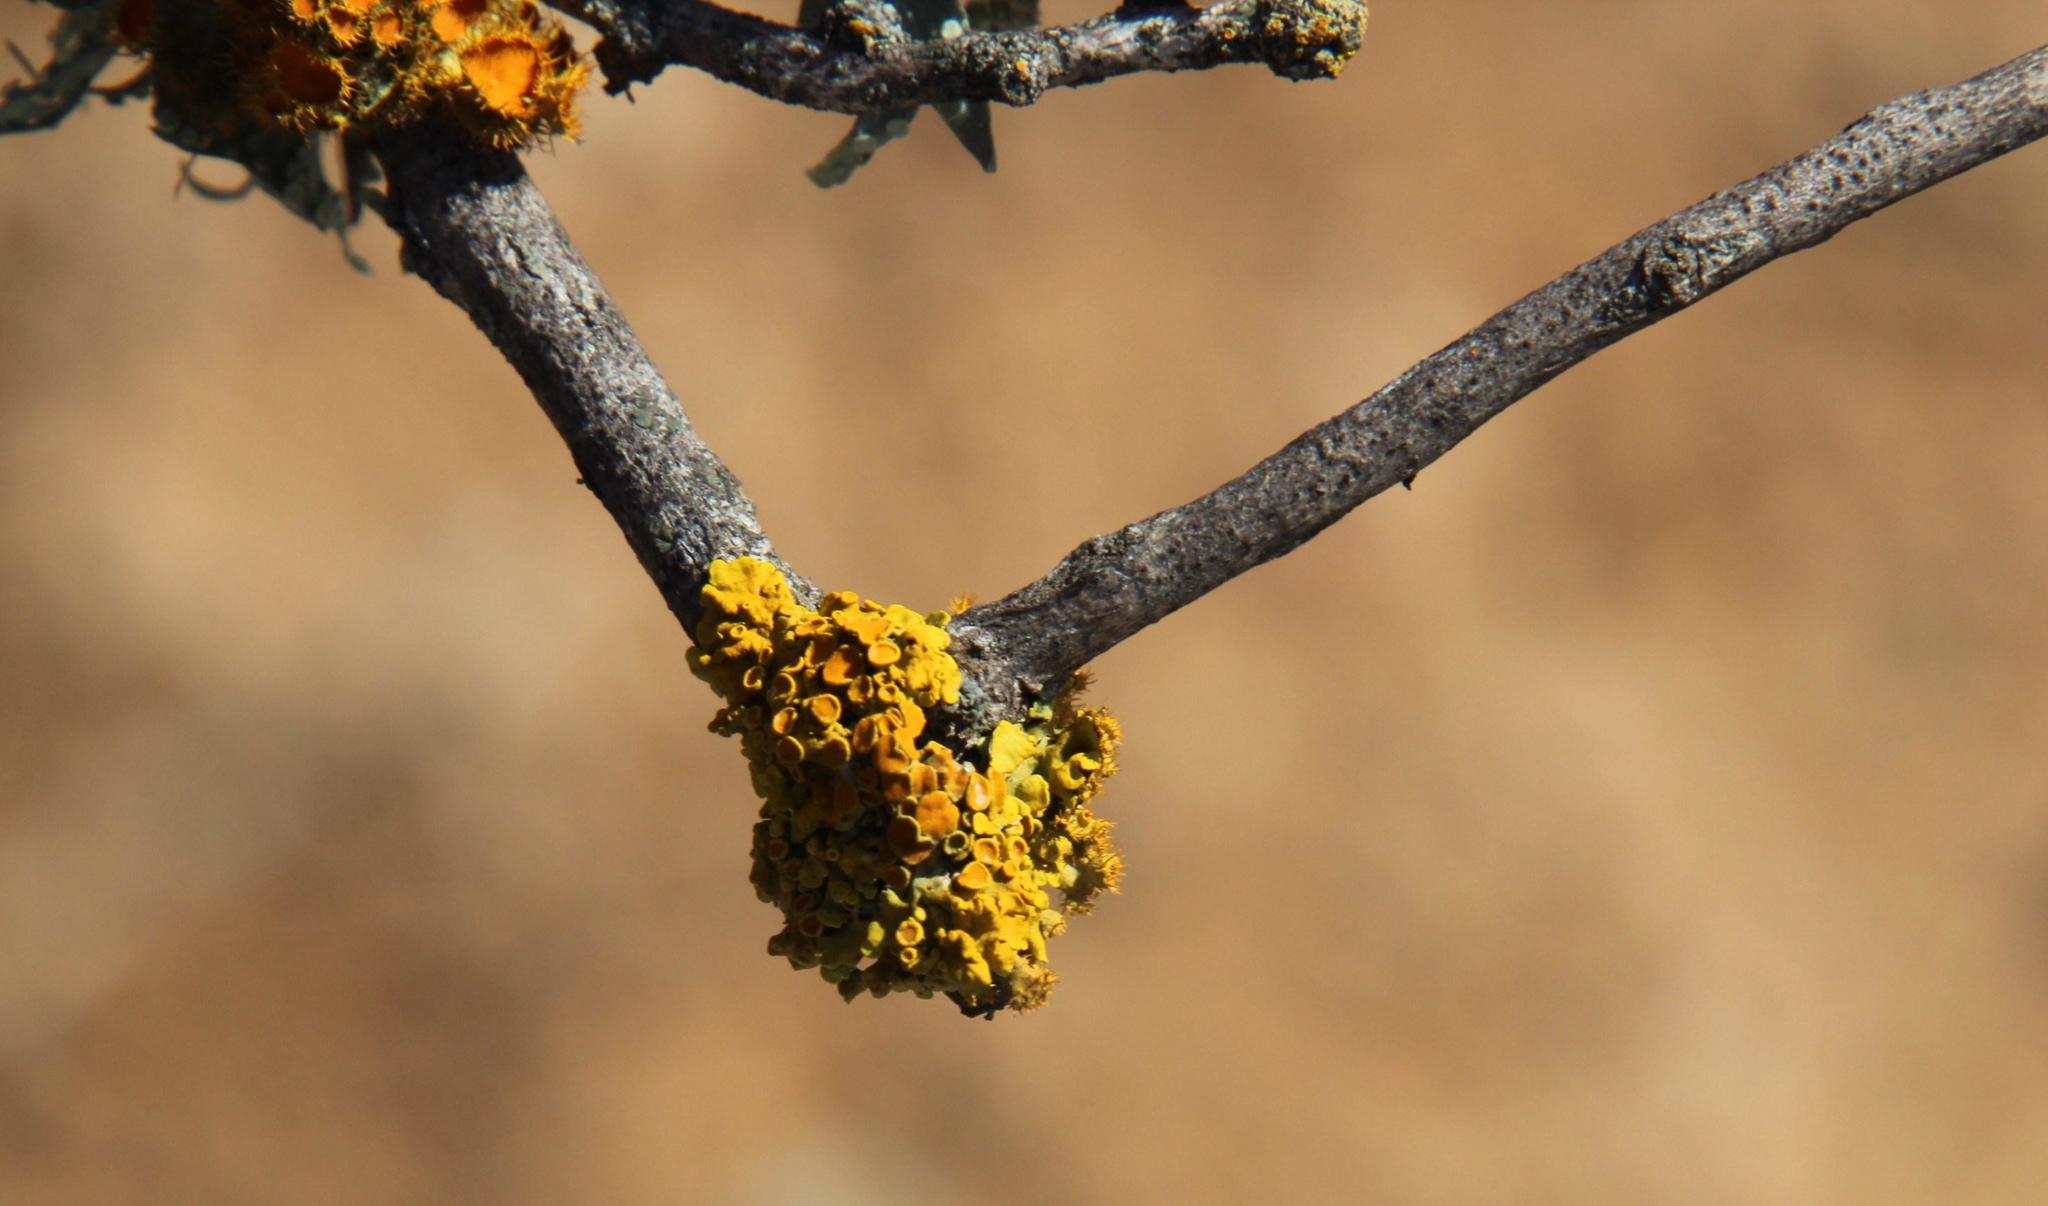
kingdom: Fungi
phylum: Ascomycota
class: Lecanoromycetes
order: Teloschistales
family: Teloschistaceae
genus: Xanthoria
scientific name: Xanthoria parietina
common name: Common orange lichen
